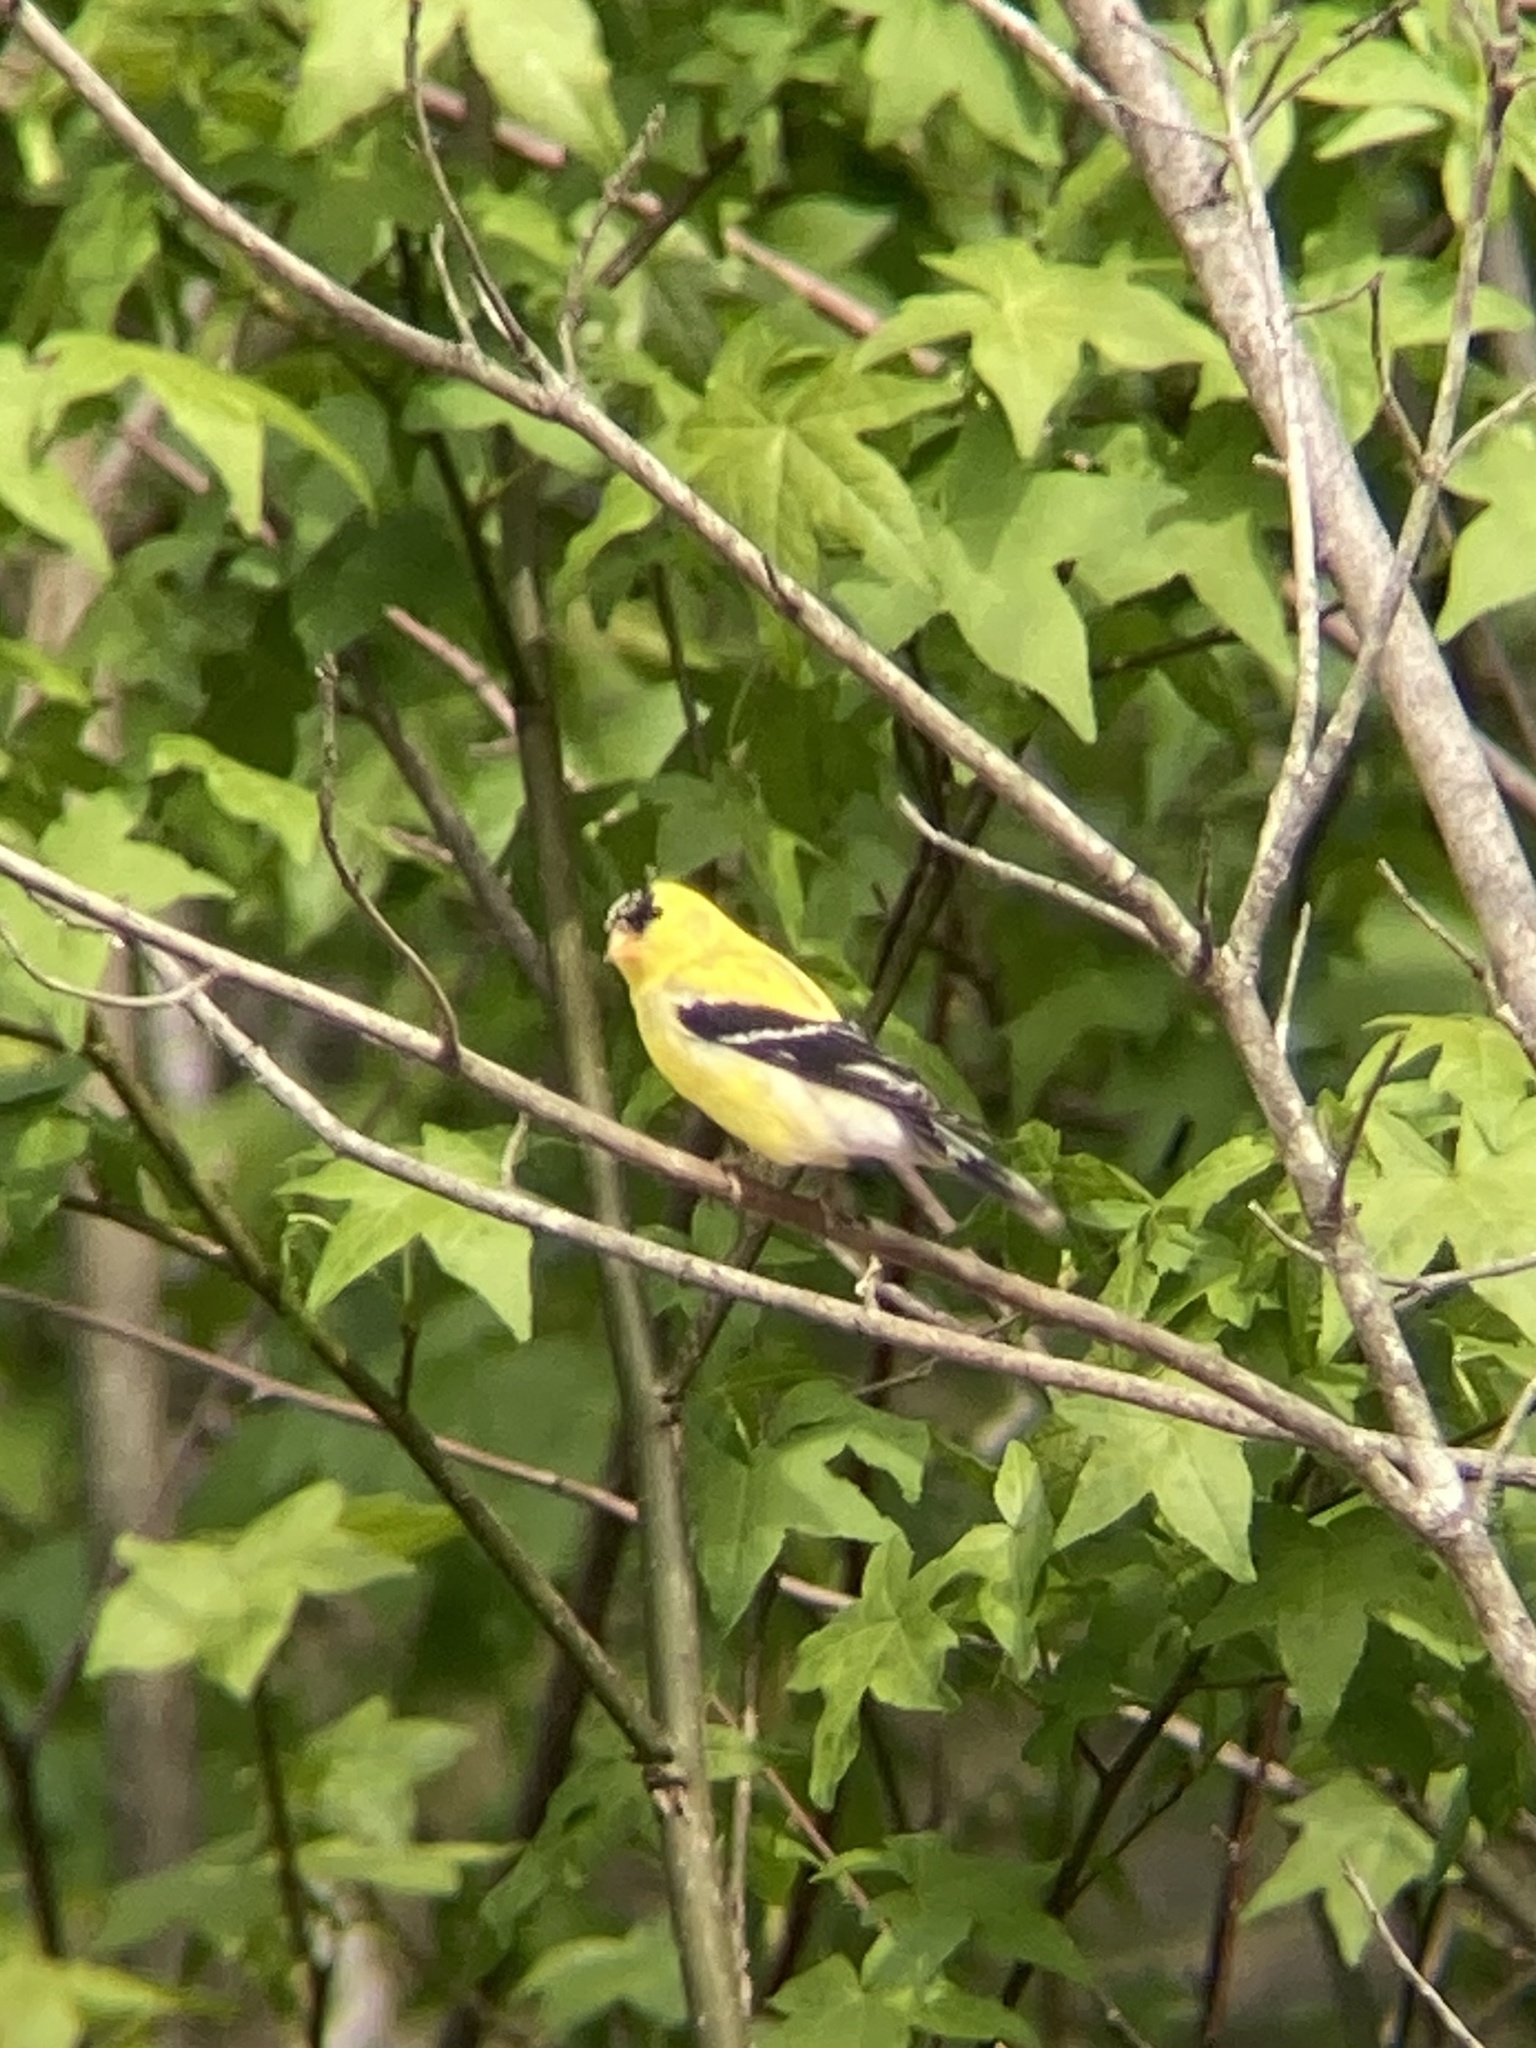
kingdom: Animalia
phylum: Chordata
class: Aves
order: Passeriformes
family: Fringillidae
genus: Spinus
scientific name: Spinus tristis
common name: American goldfinch
